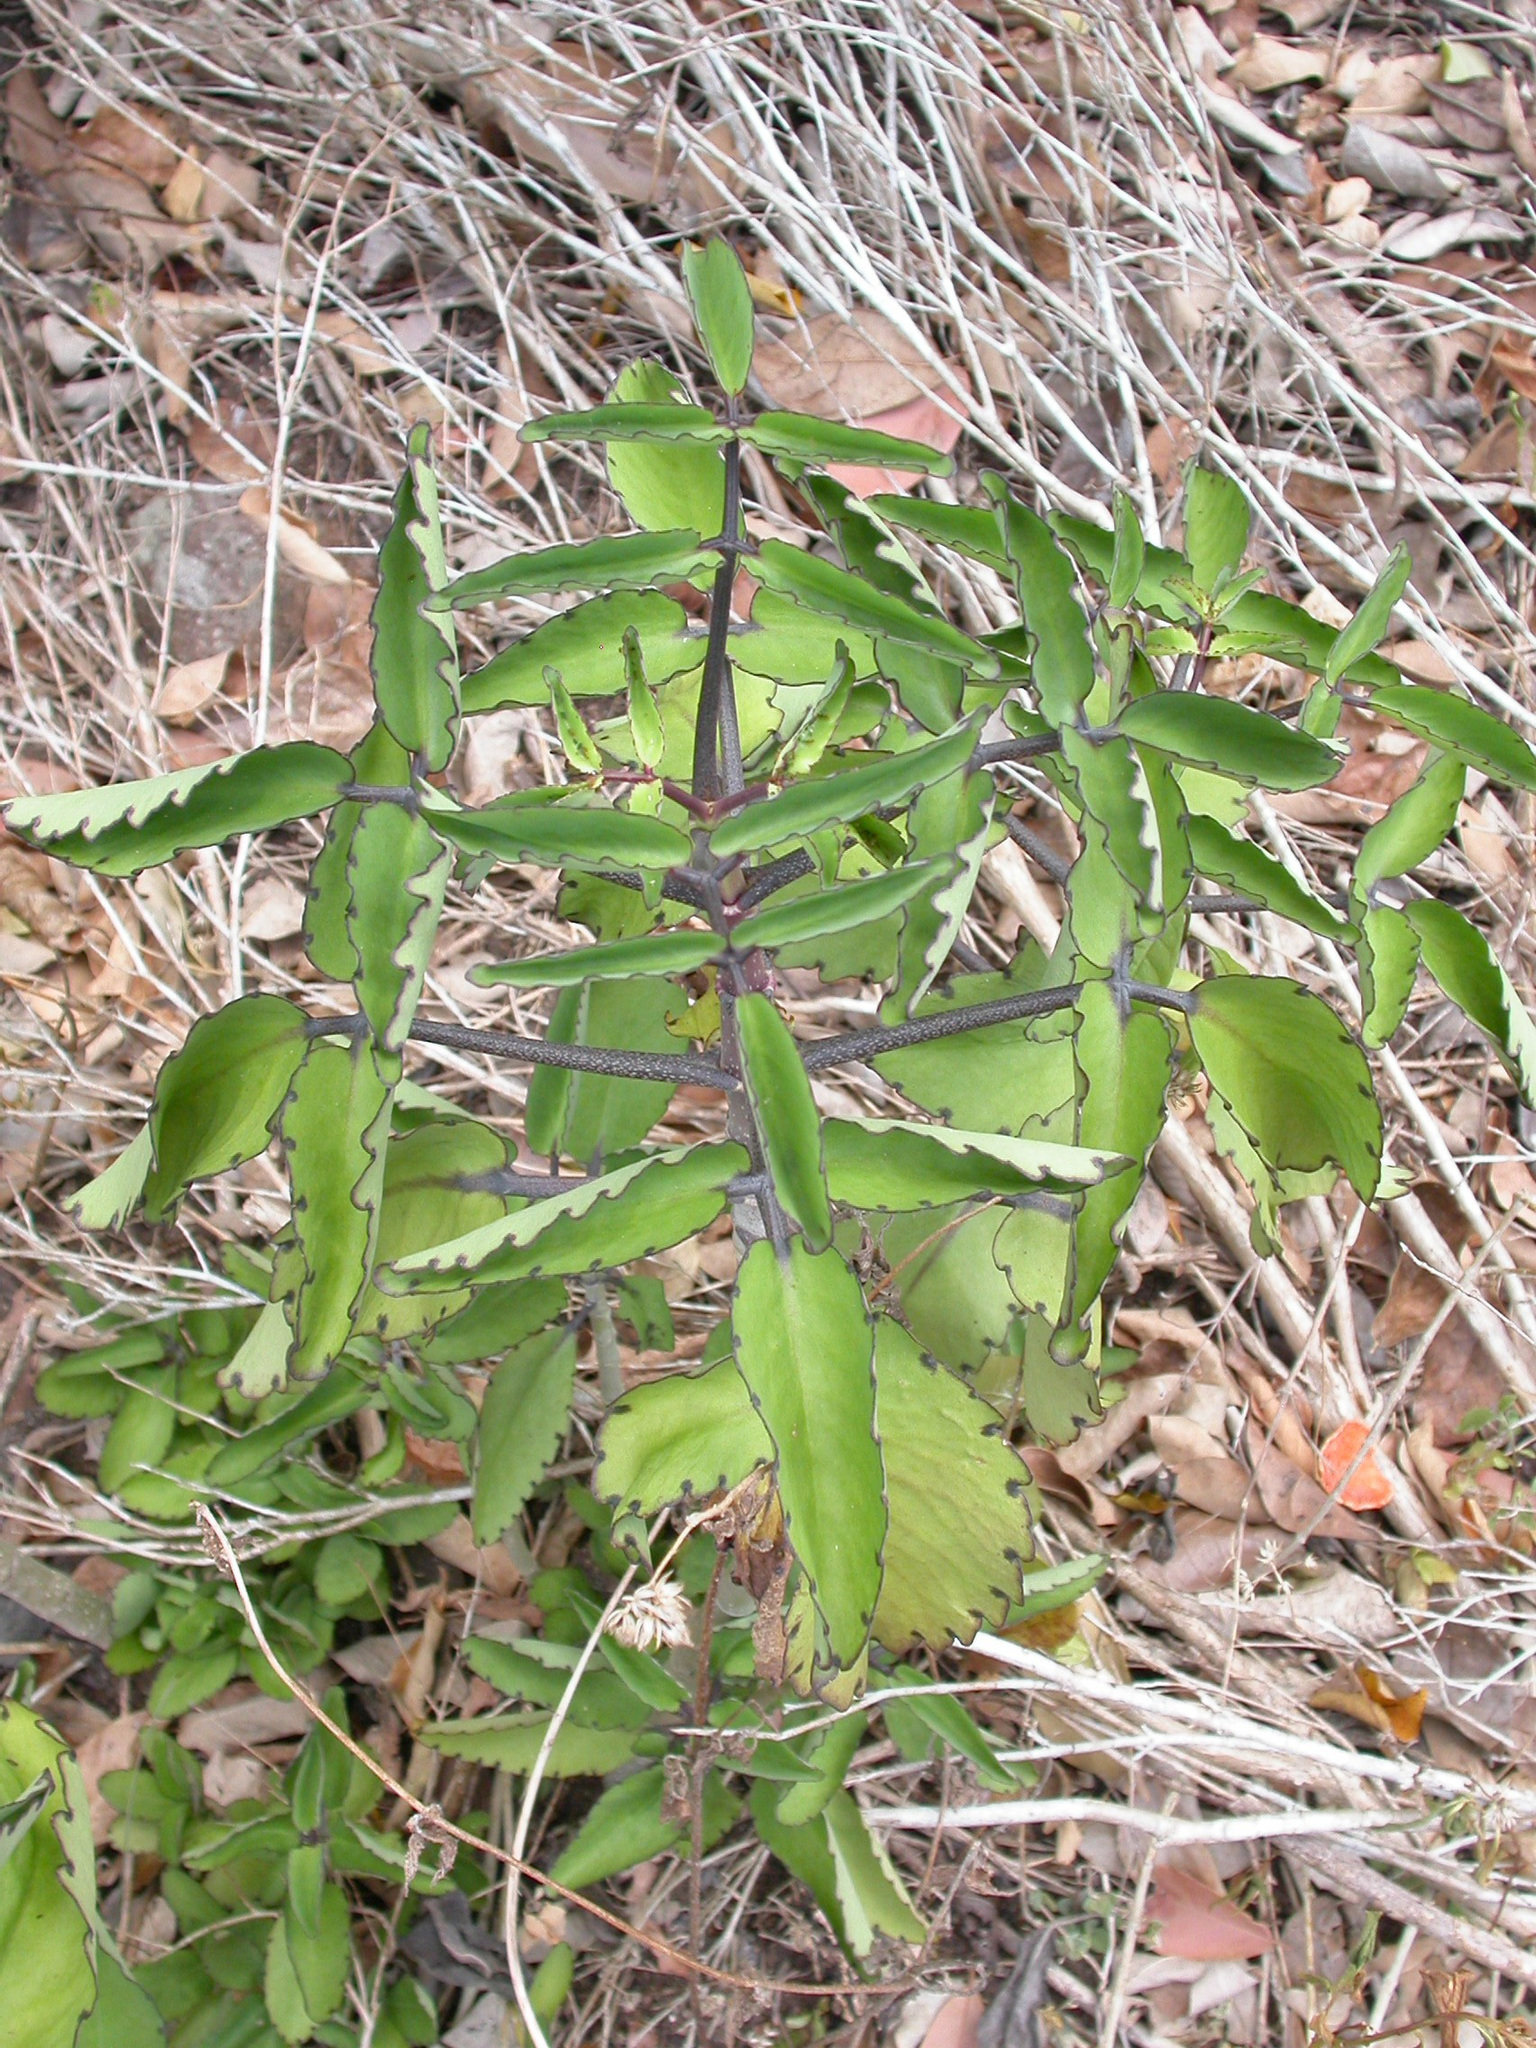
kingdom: Plantae
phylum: Tracheophyta
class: Magnoliopsida
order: Saxifragales
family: Crassulaceae
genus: Kalanchoe
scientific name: Kalanchoe pinnata
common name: Cathedral bells
